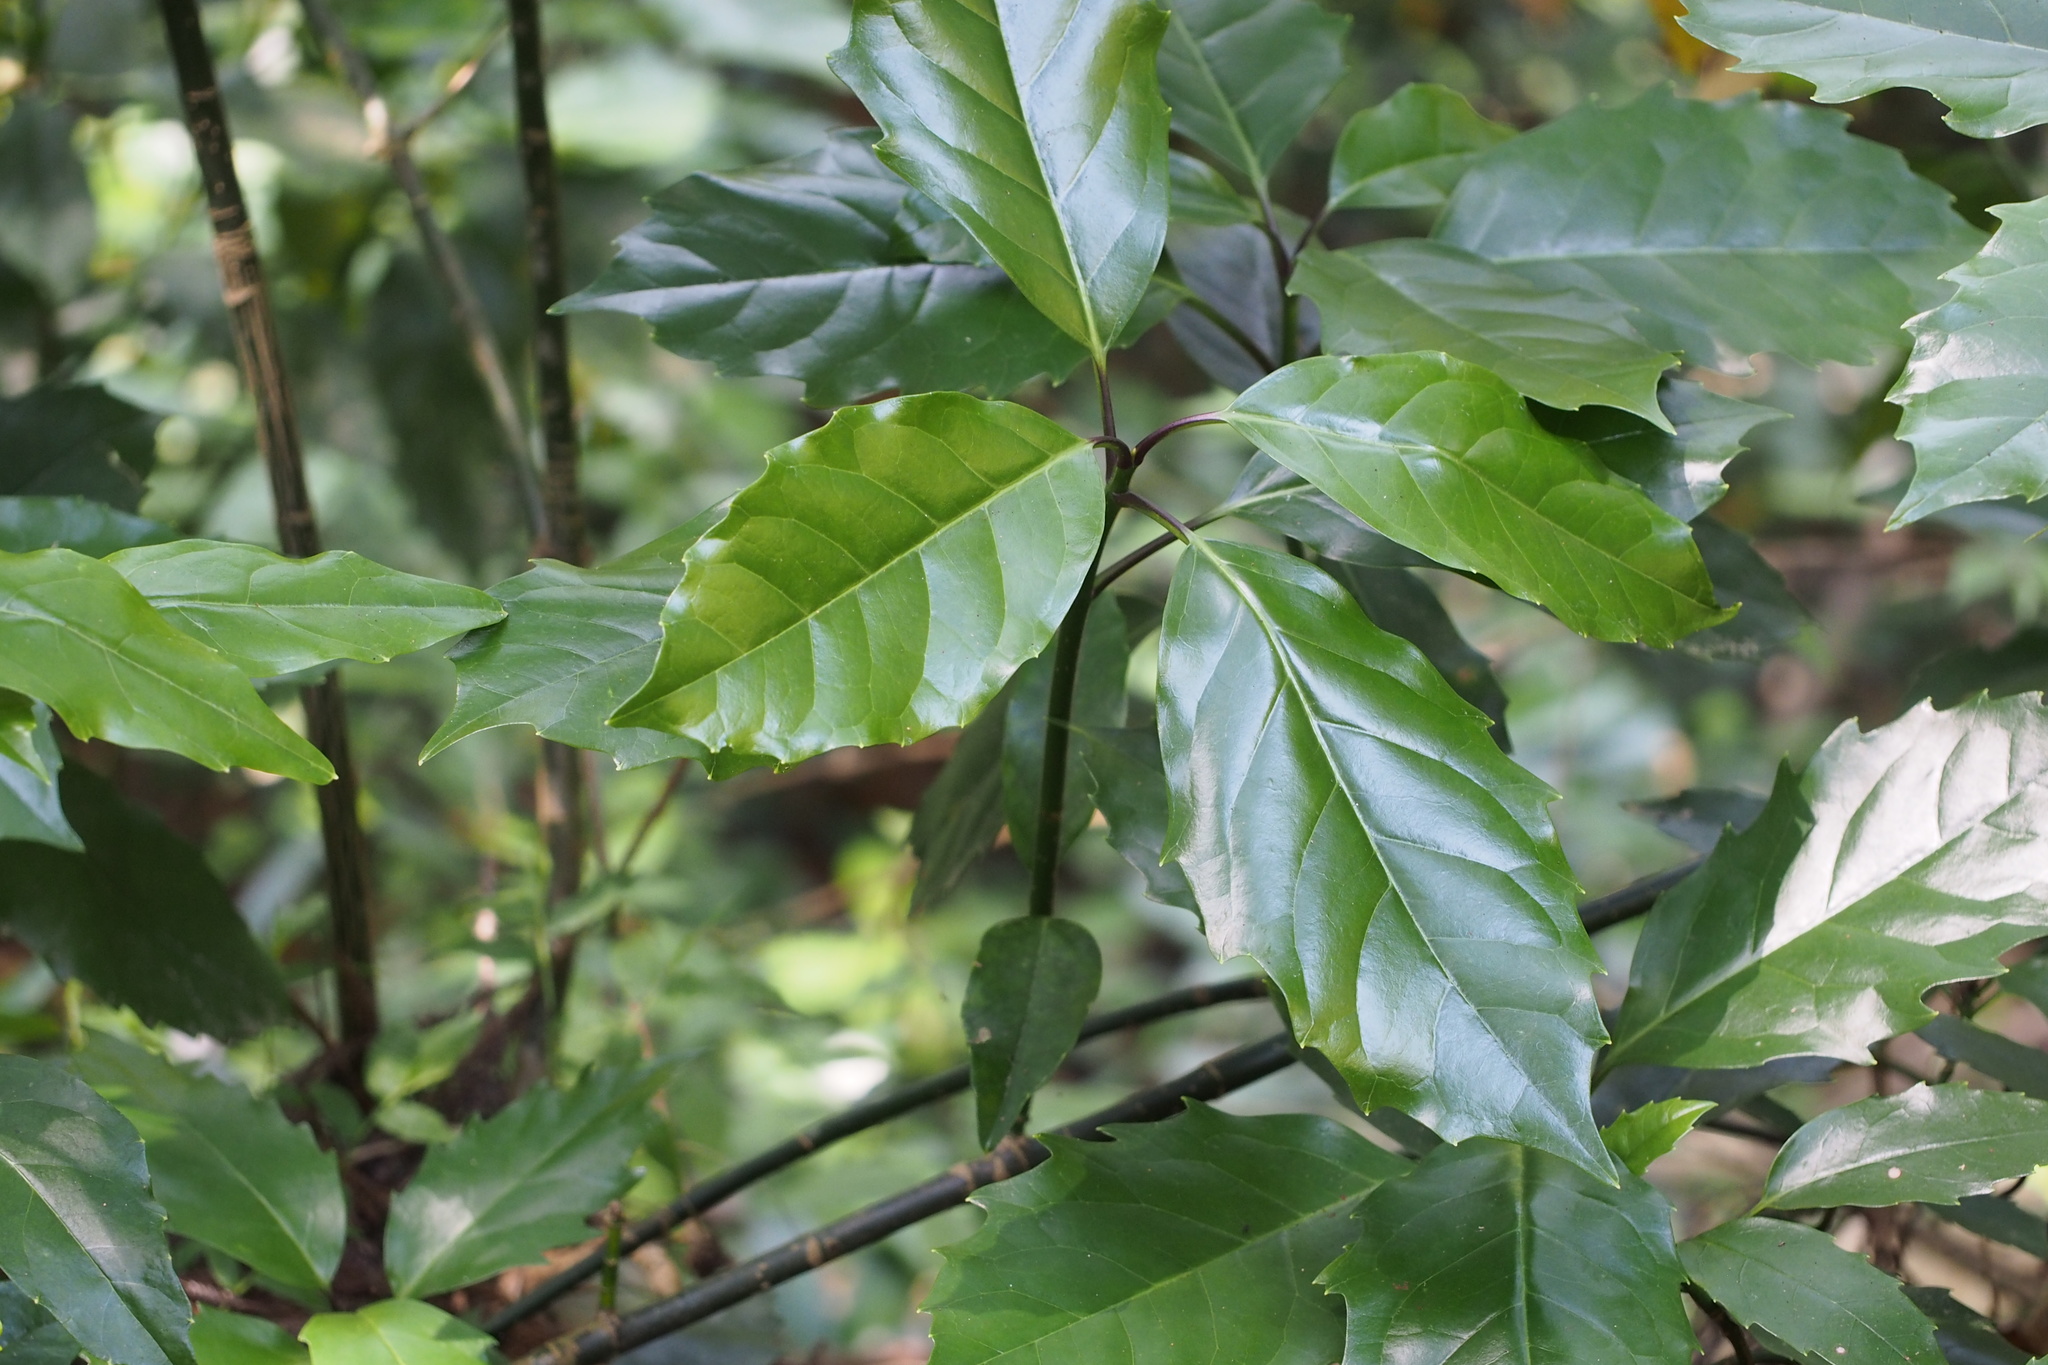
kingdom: Plantae
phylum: Tracheophyta
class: Magnoliopsida
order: Garryales
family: Garryaceae
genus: Aucuba
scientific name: Aucuba japonica
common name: Spotted-laurel
